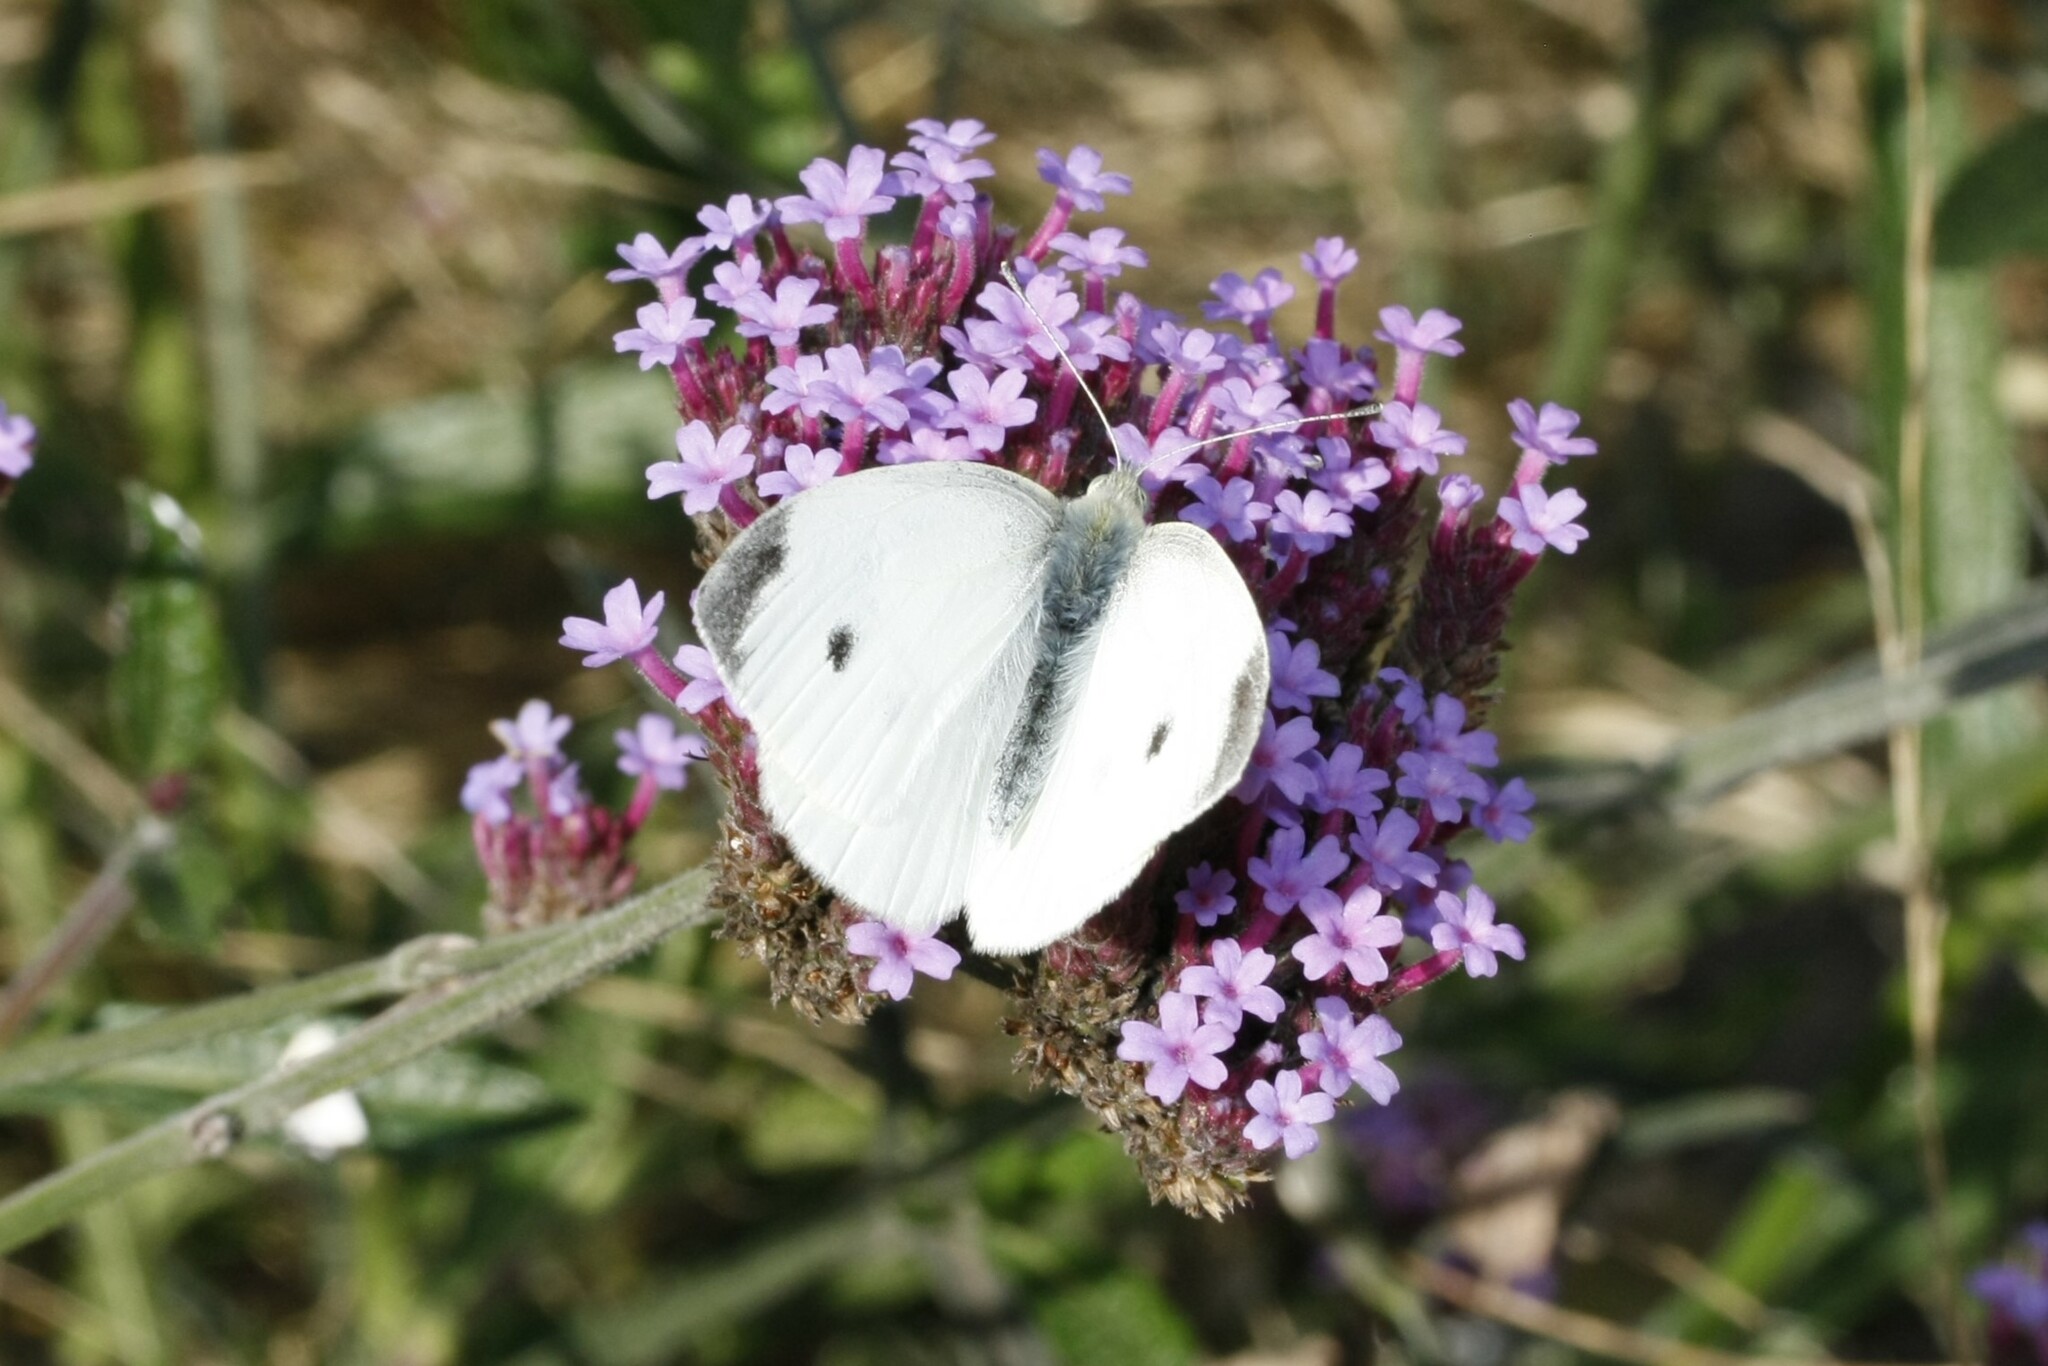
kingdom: Animalia
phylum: Arthropoda
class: Insecta
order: Lepidoptera
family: Pieridae
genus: Pieris
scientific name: Pieris rapae
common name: Small white
